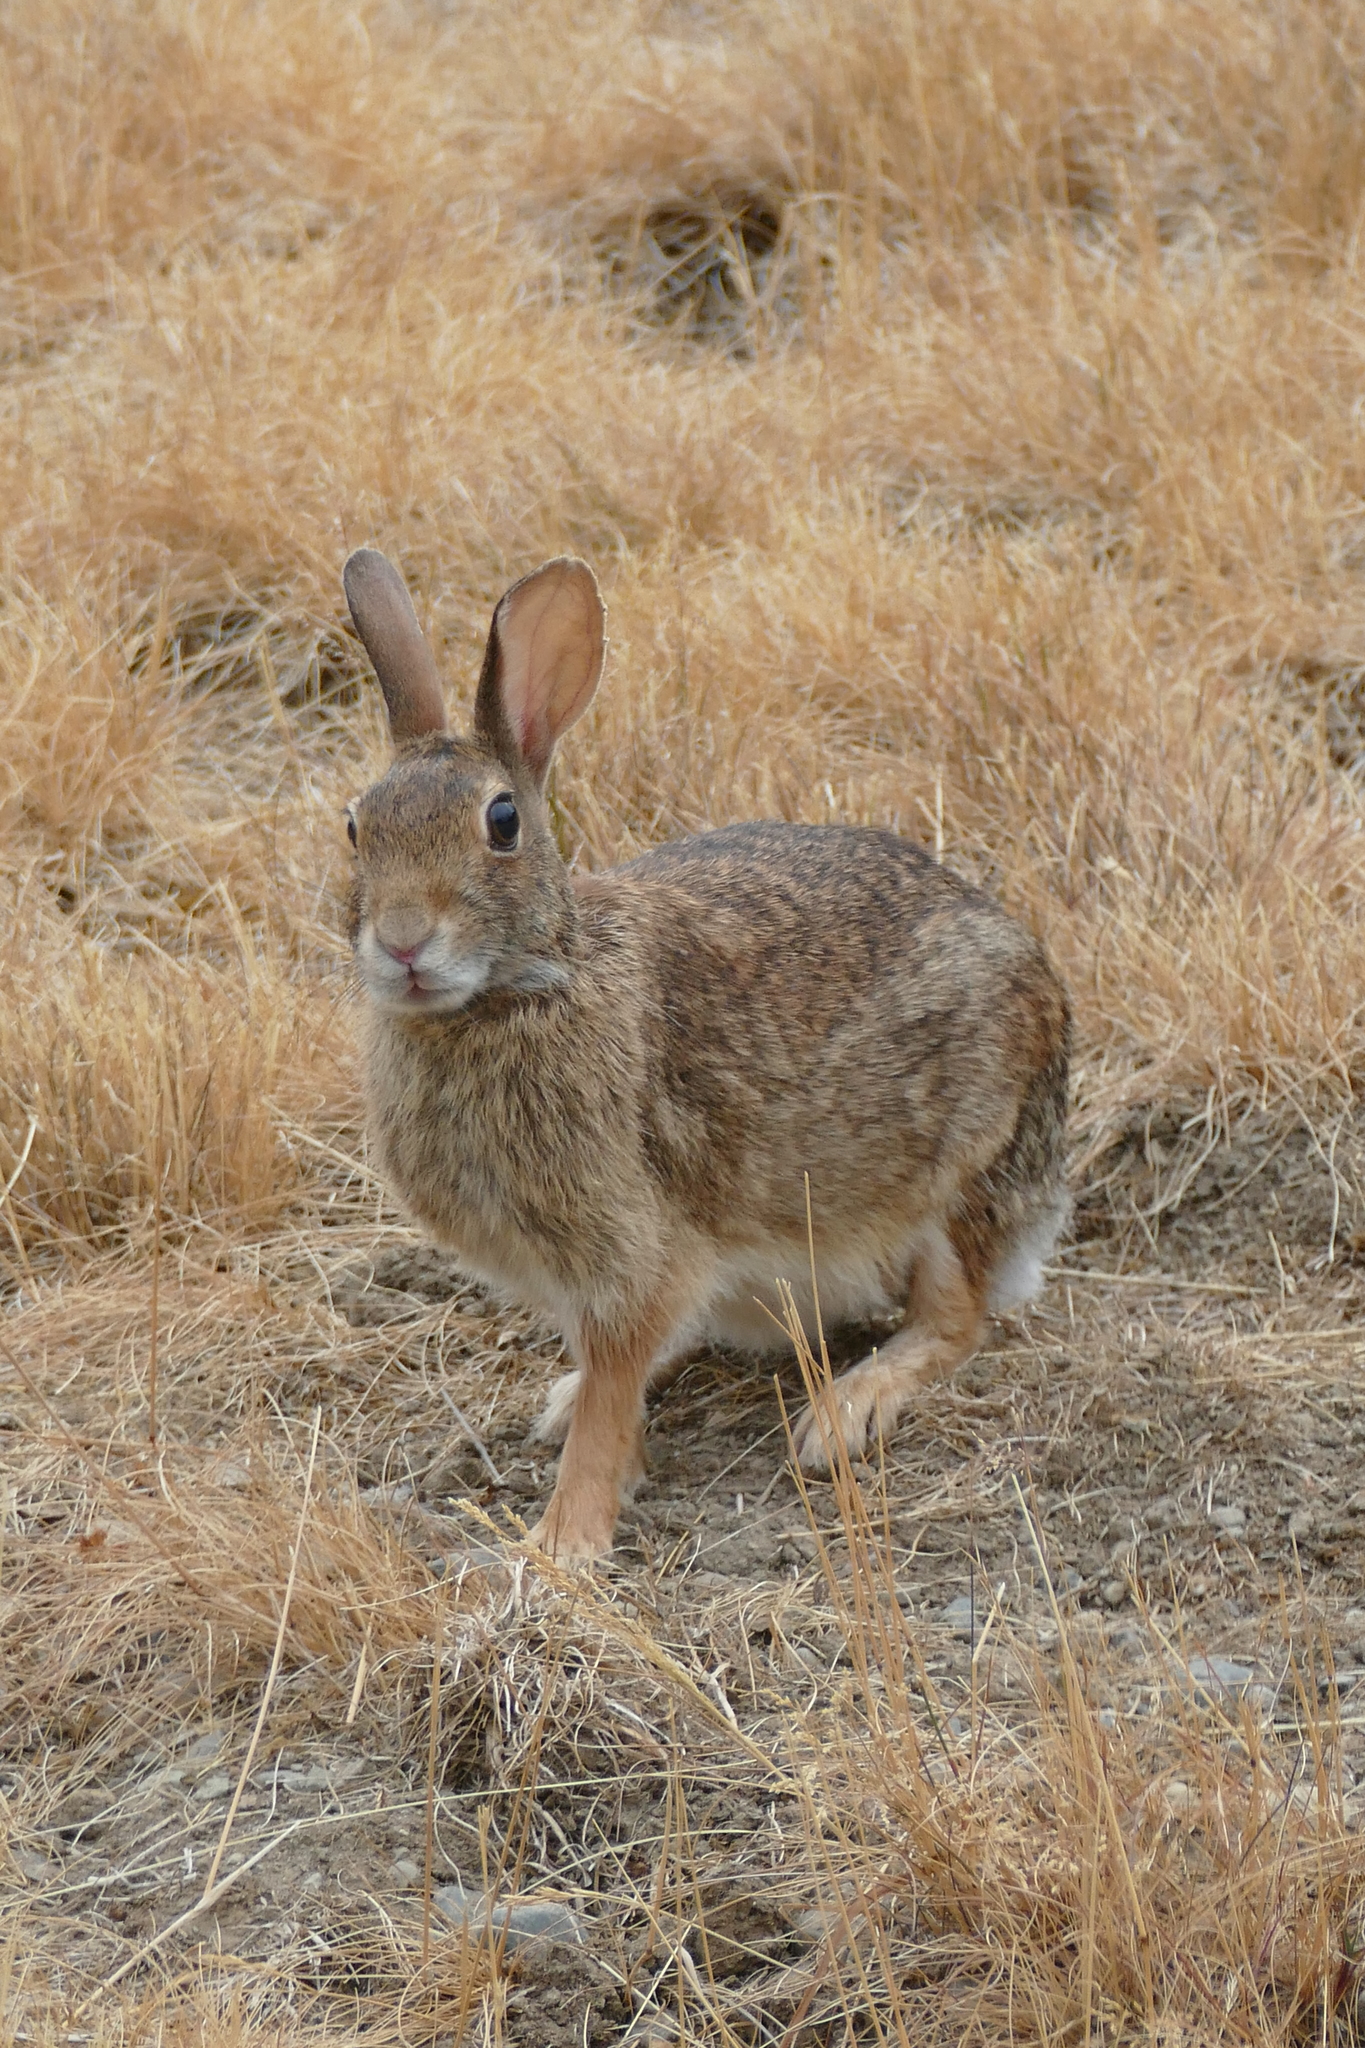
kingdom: Animalia
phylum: Chordata
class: Mammalia
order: Lagomorpha
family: Leporidae
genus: Sylvilagus
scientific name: Sylvilagus floridanus
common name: Eastern cottontail
